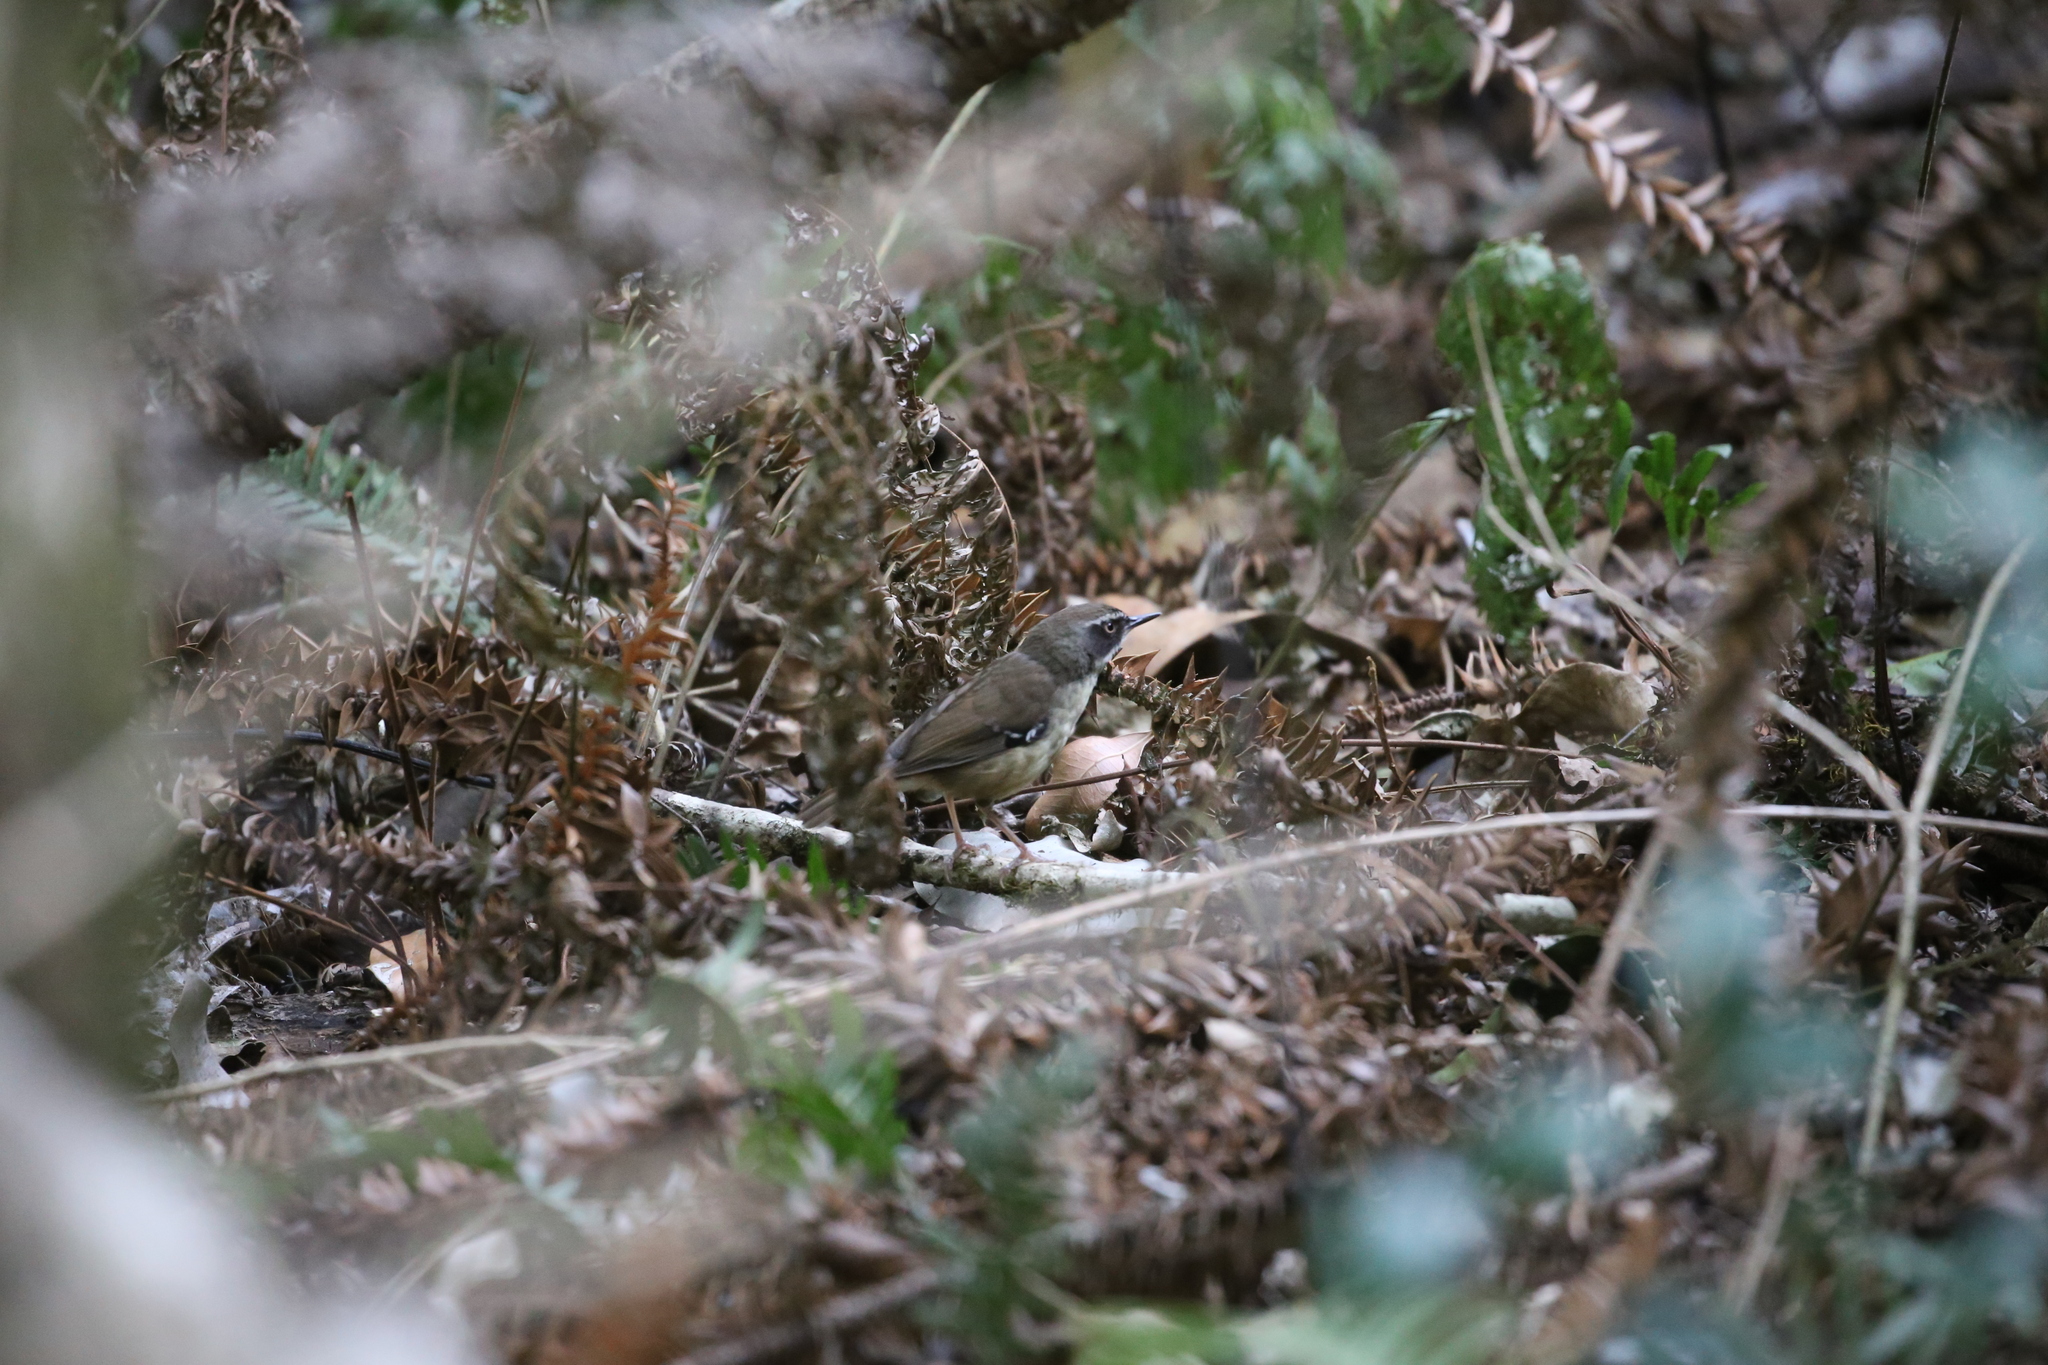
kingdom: Animalia
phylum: Chordata
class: Aves
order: Passeriformes
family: Acanthizidae
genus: Sericornis
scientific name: Sericornis frontalis
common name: White-browed scrubwren
